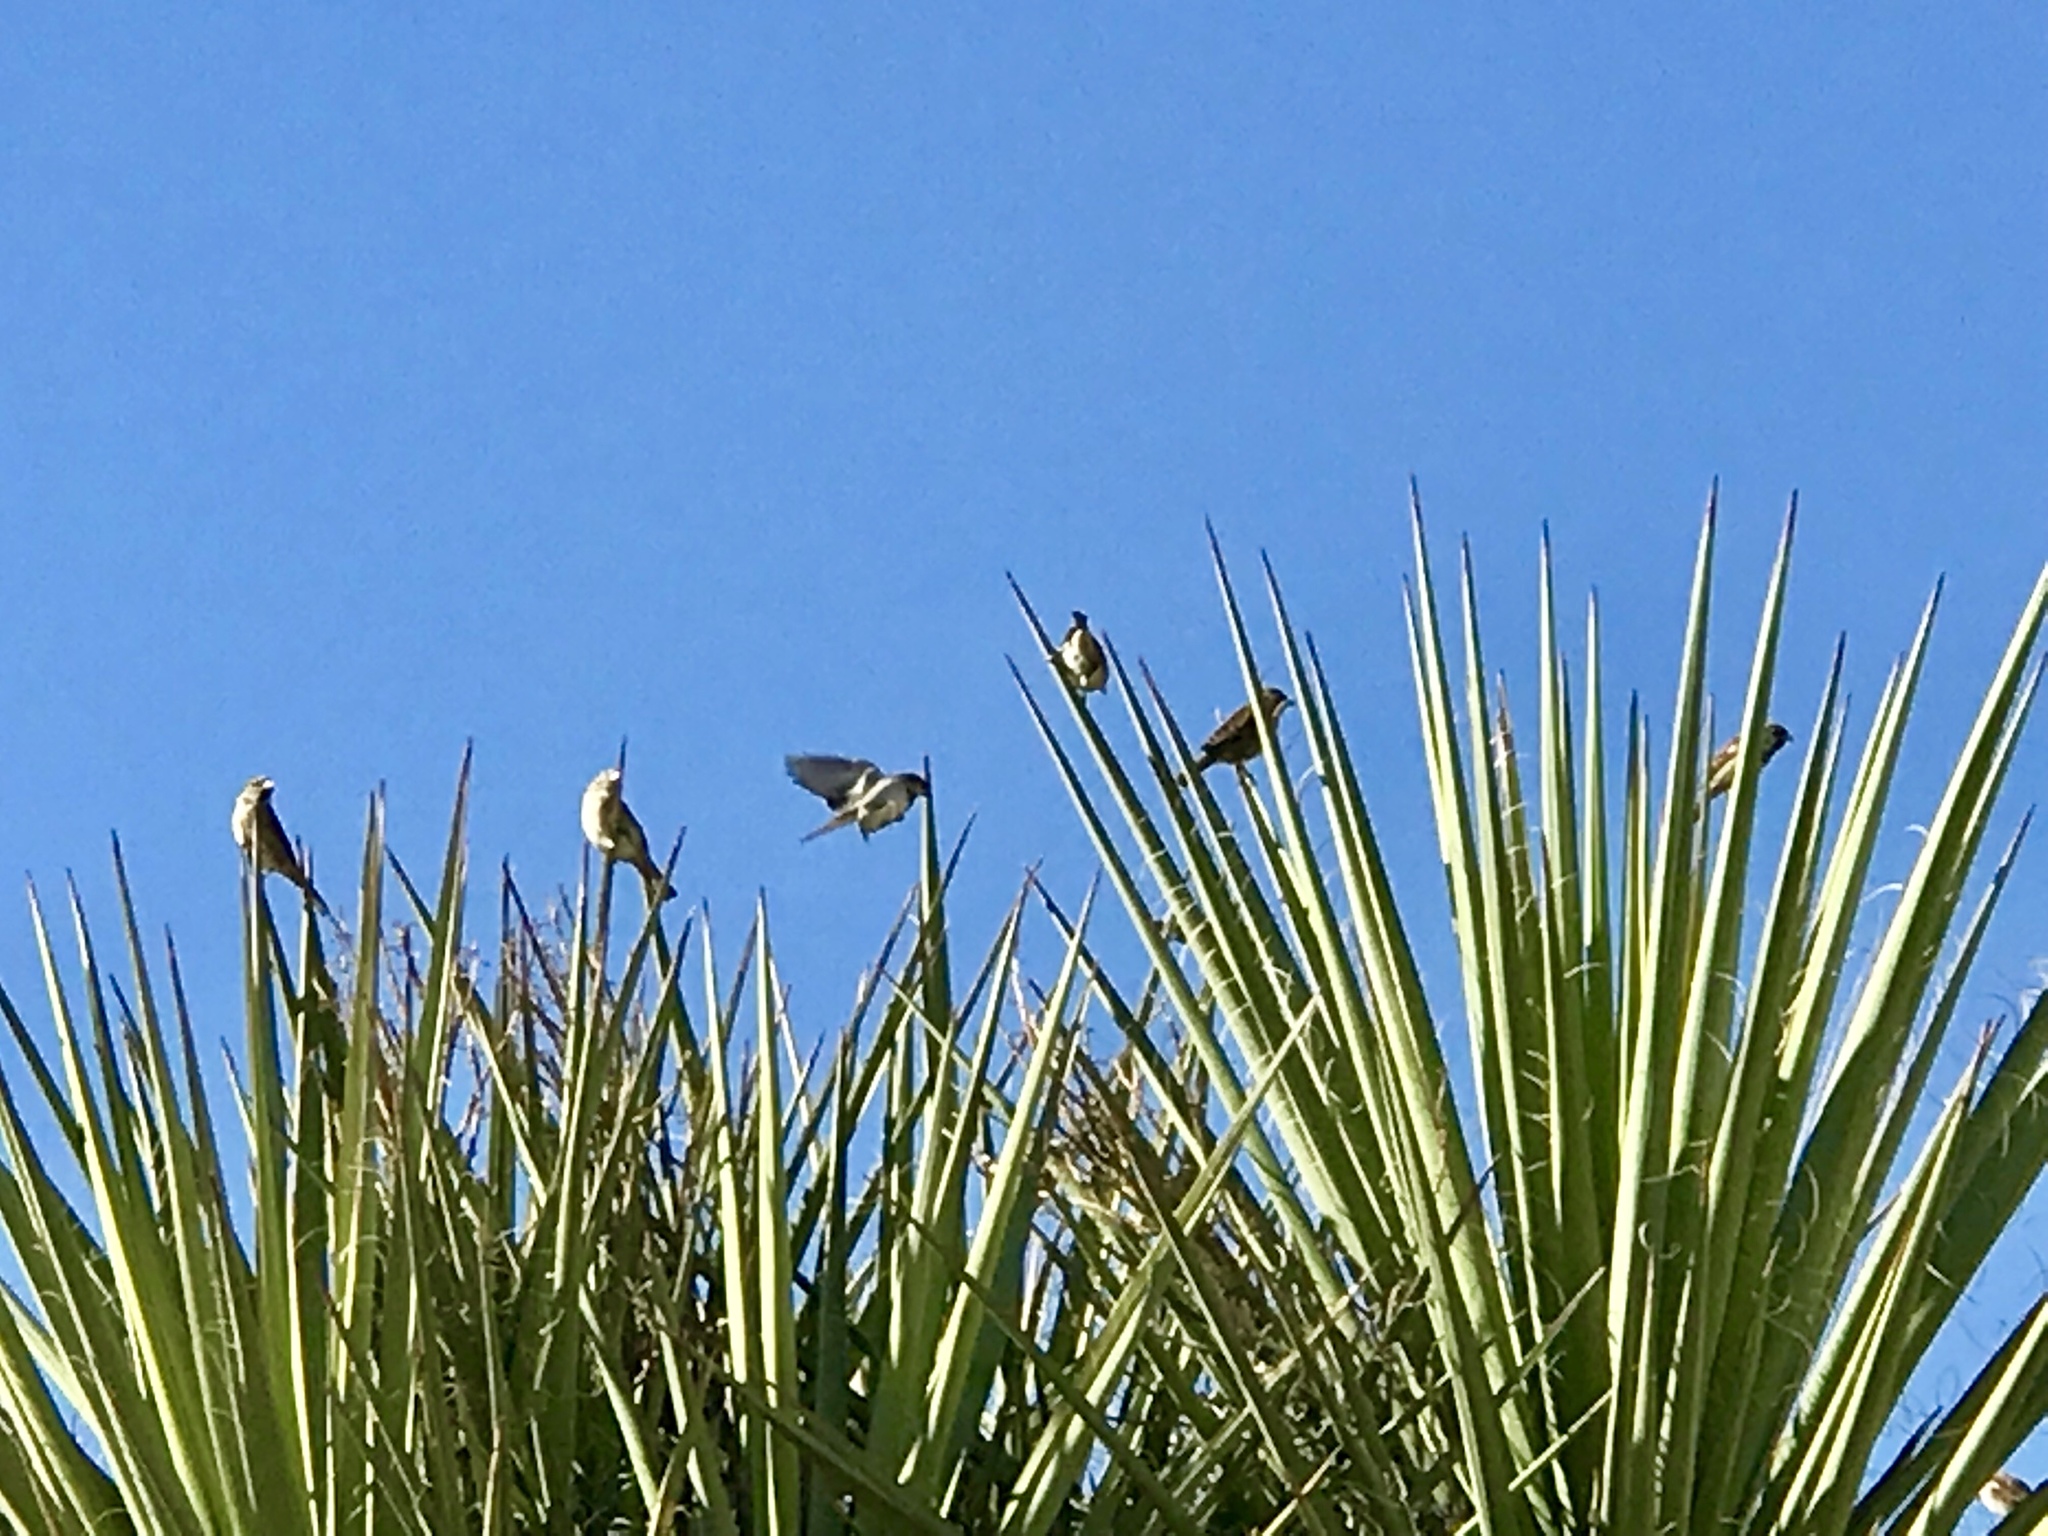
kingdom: Animalia
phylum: Chordata
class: Aves
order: Passeriformes
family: Passeridae
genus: Passer
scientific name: Passer domesticus
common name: House sparrow
